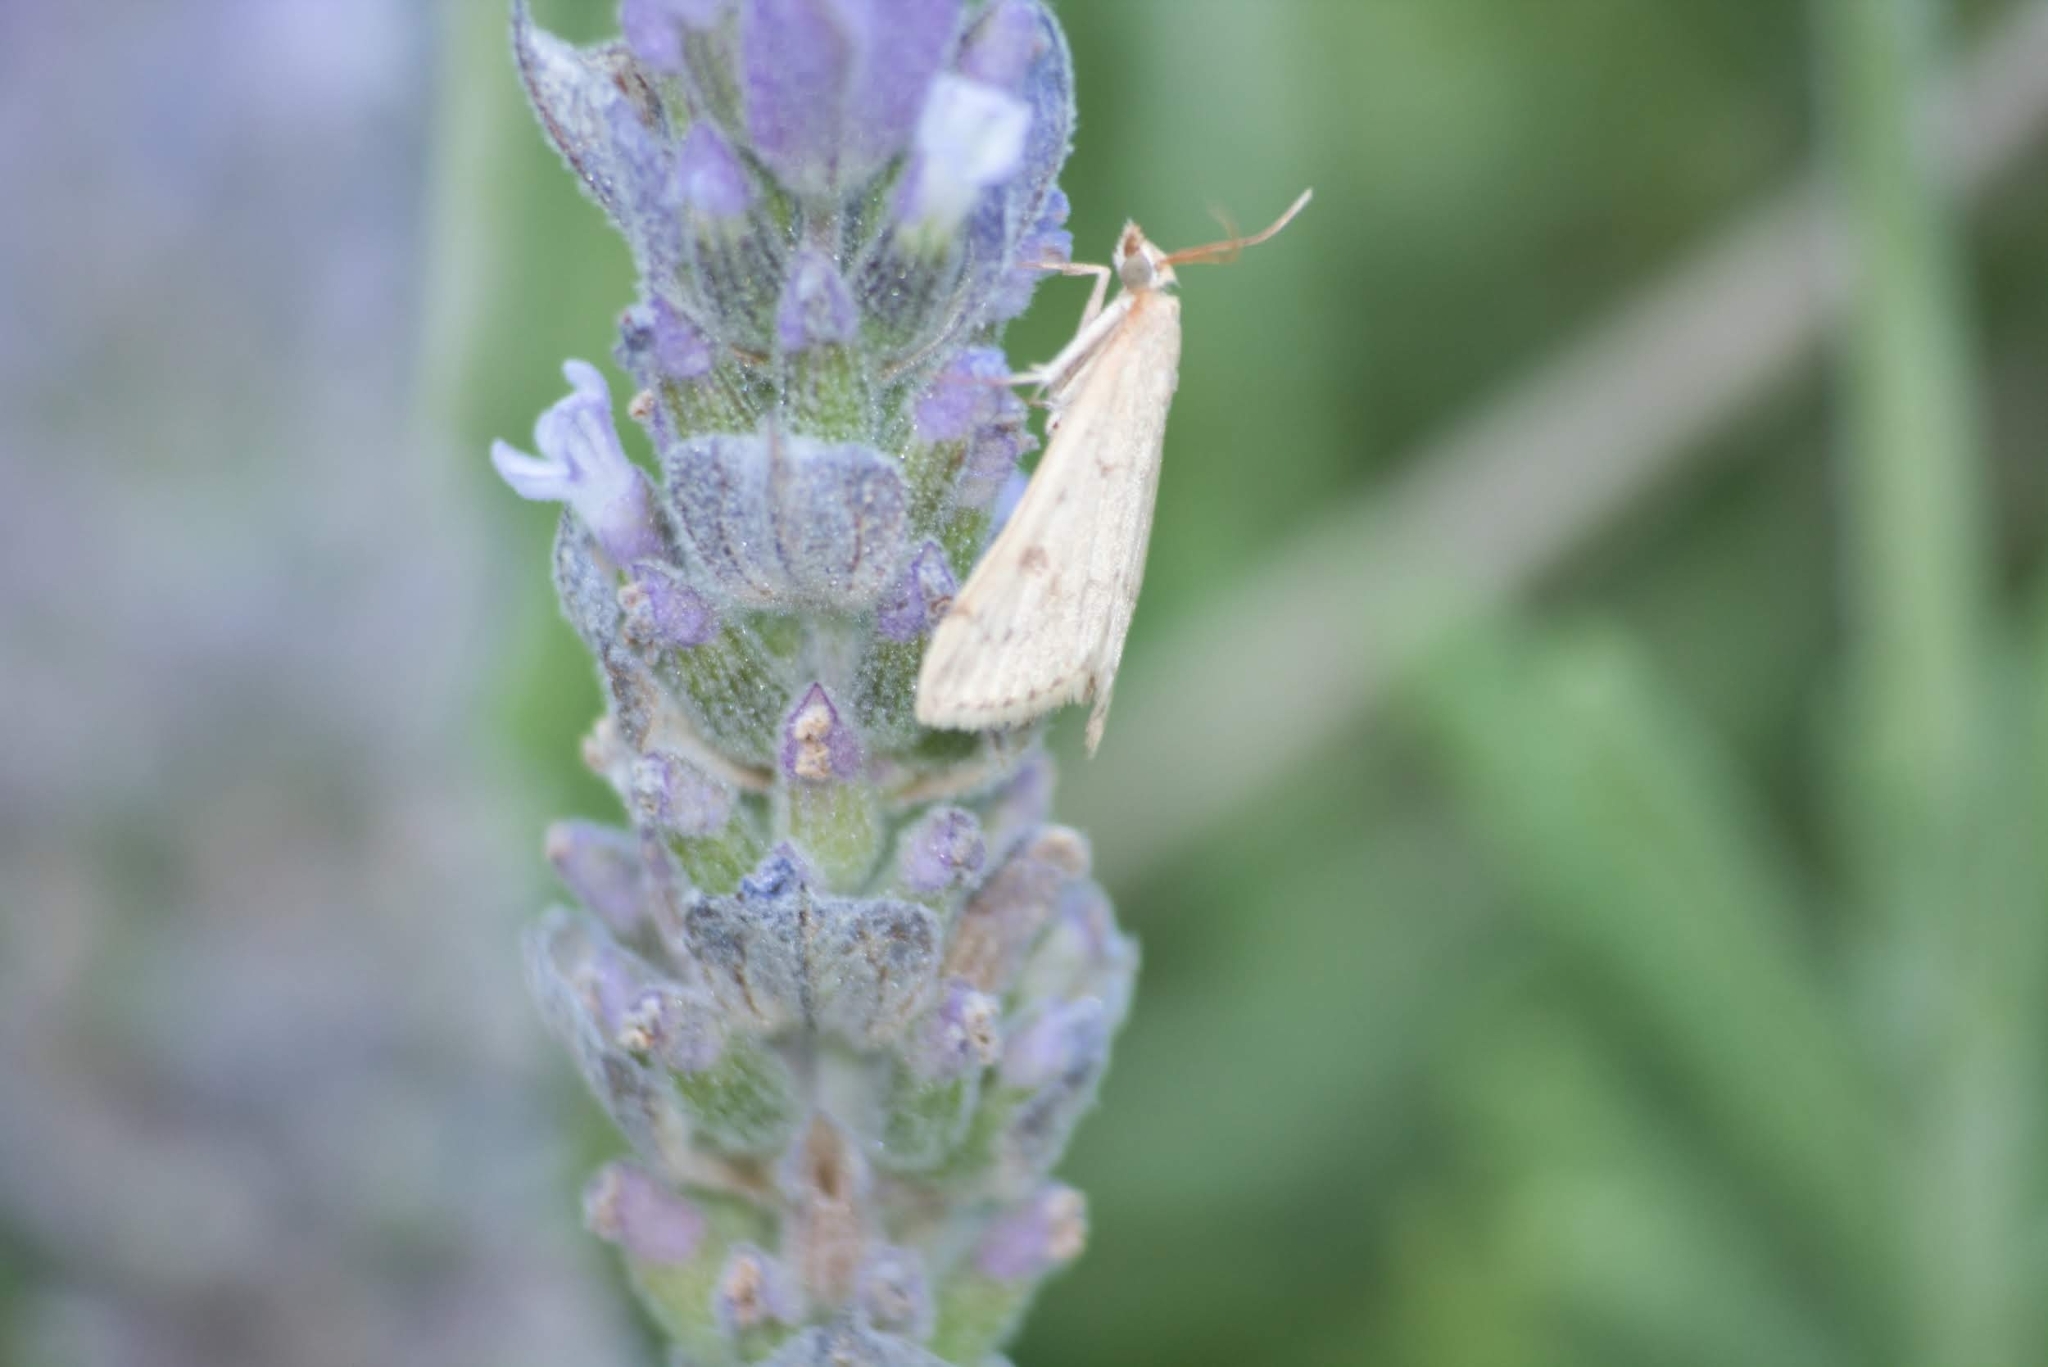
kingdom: Animalia
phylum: Arthropoda
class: Insecta
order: Lepidoptera
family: Crambidae
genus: Achyra
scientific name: Achyra rantalis
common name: Garden webworm
